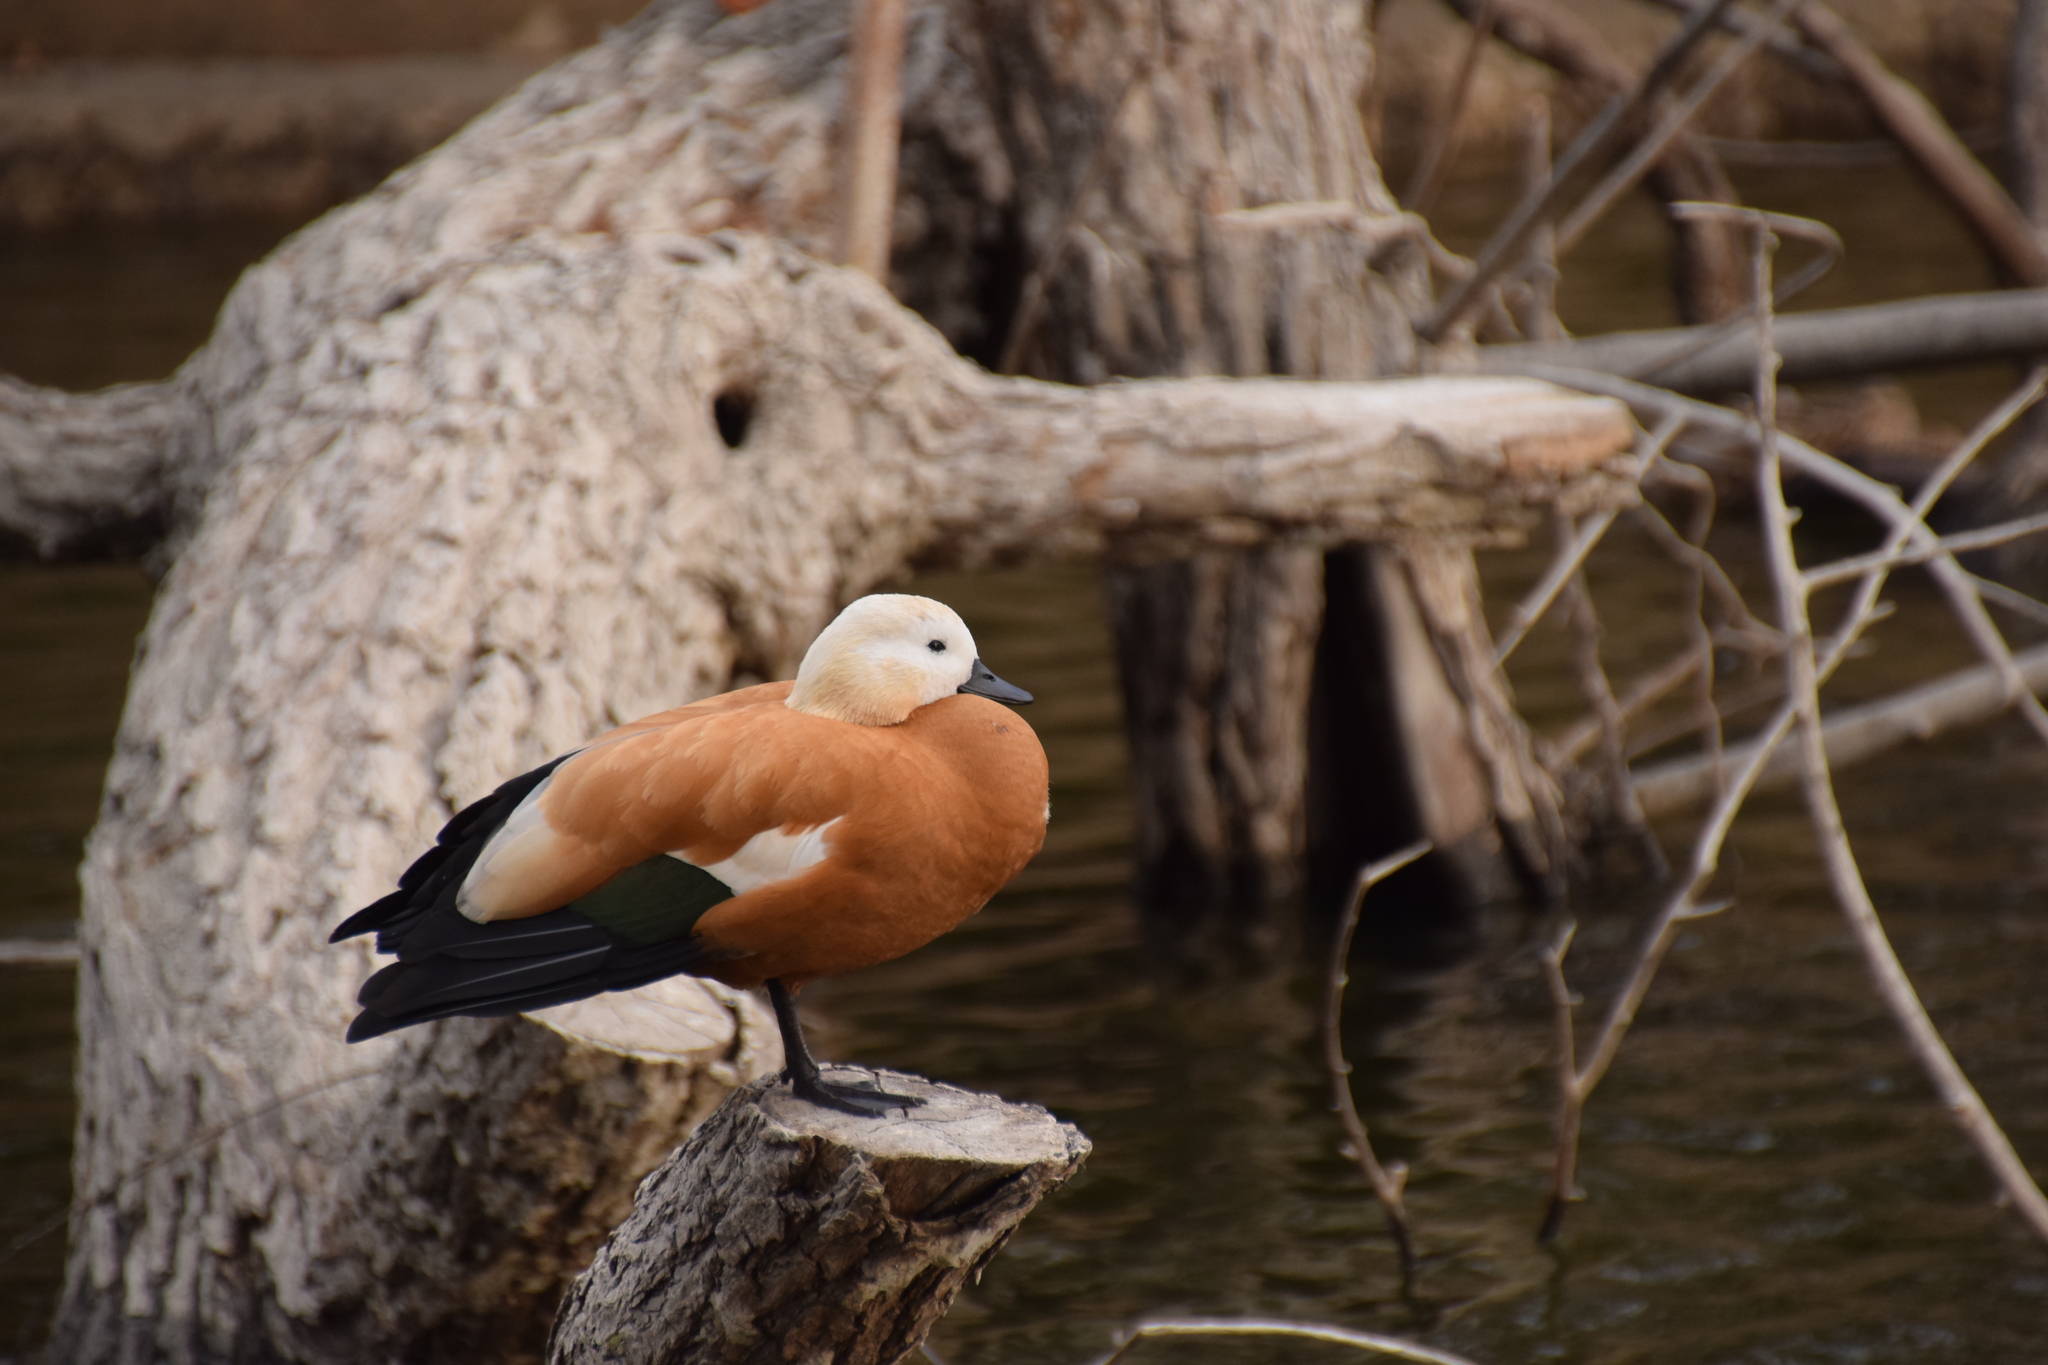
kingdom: Animalia
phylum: Chordata
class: Aves
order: Anseriformes
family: Anatidae
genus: Tadorna
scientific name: Tadorna ferruginea
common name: Ruddy shelduck
